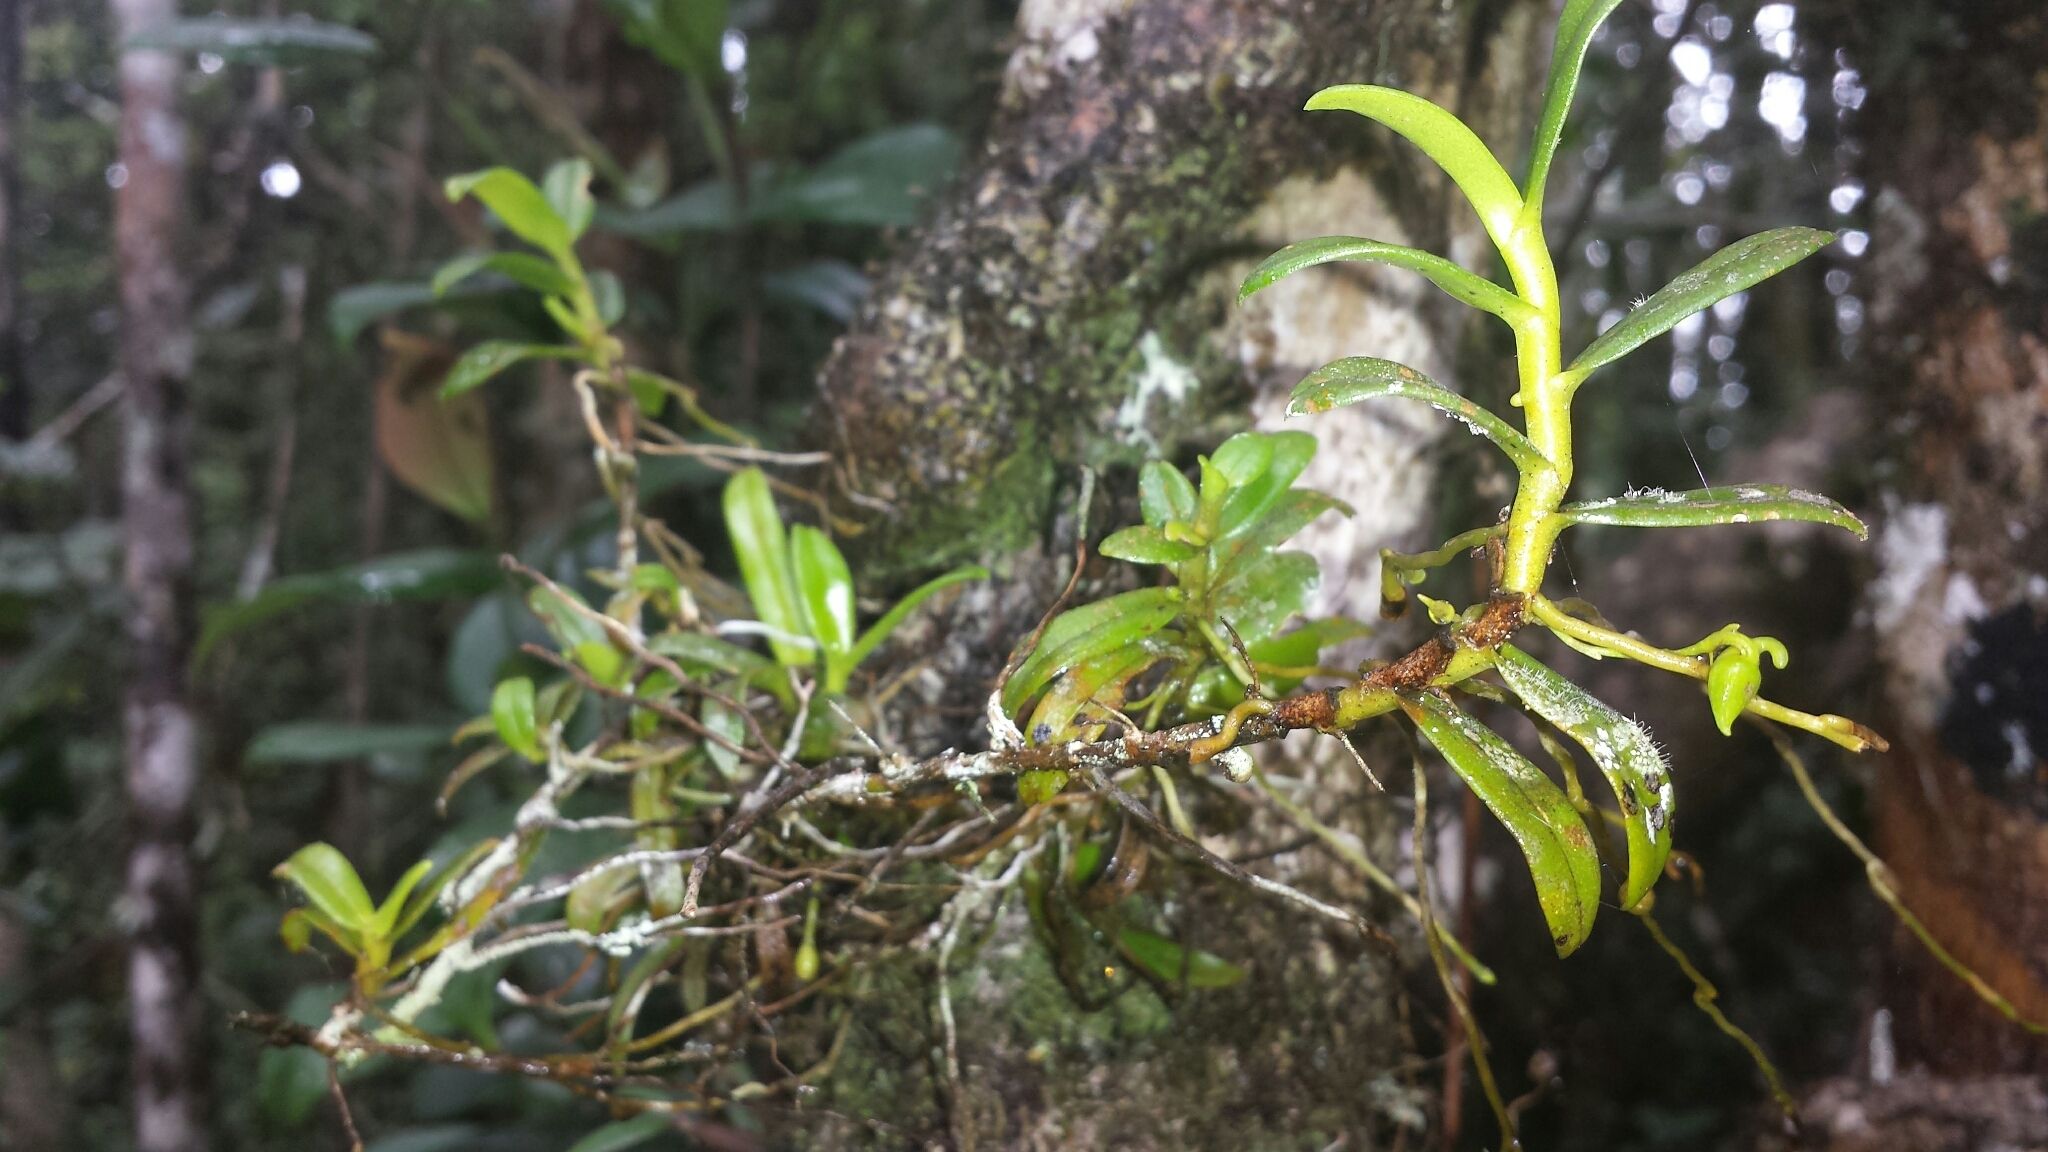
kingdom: Plantae
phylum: Tracheophyta
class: Liliopsida
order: Asparagales
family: Orchidaceae
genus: Angraecum
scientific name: Angraecum triangulifolium
